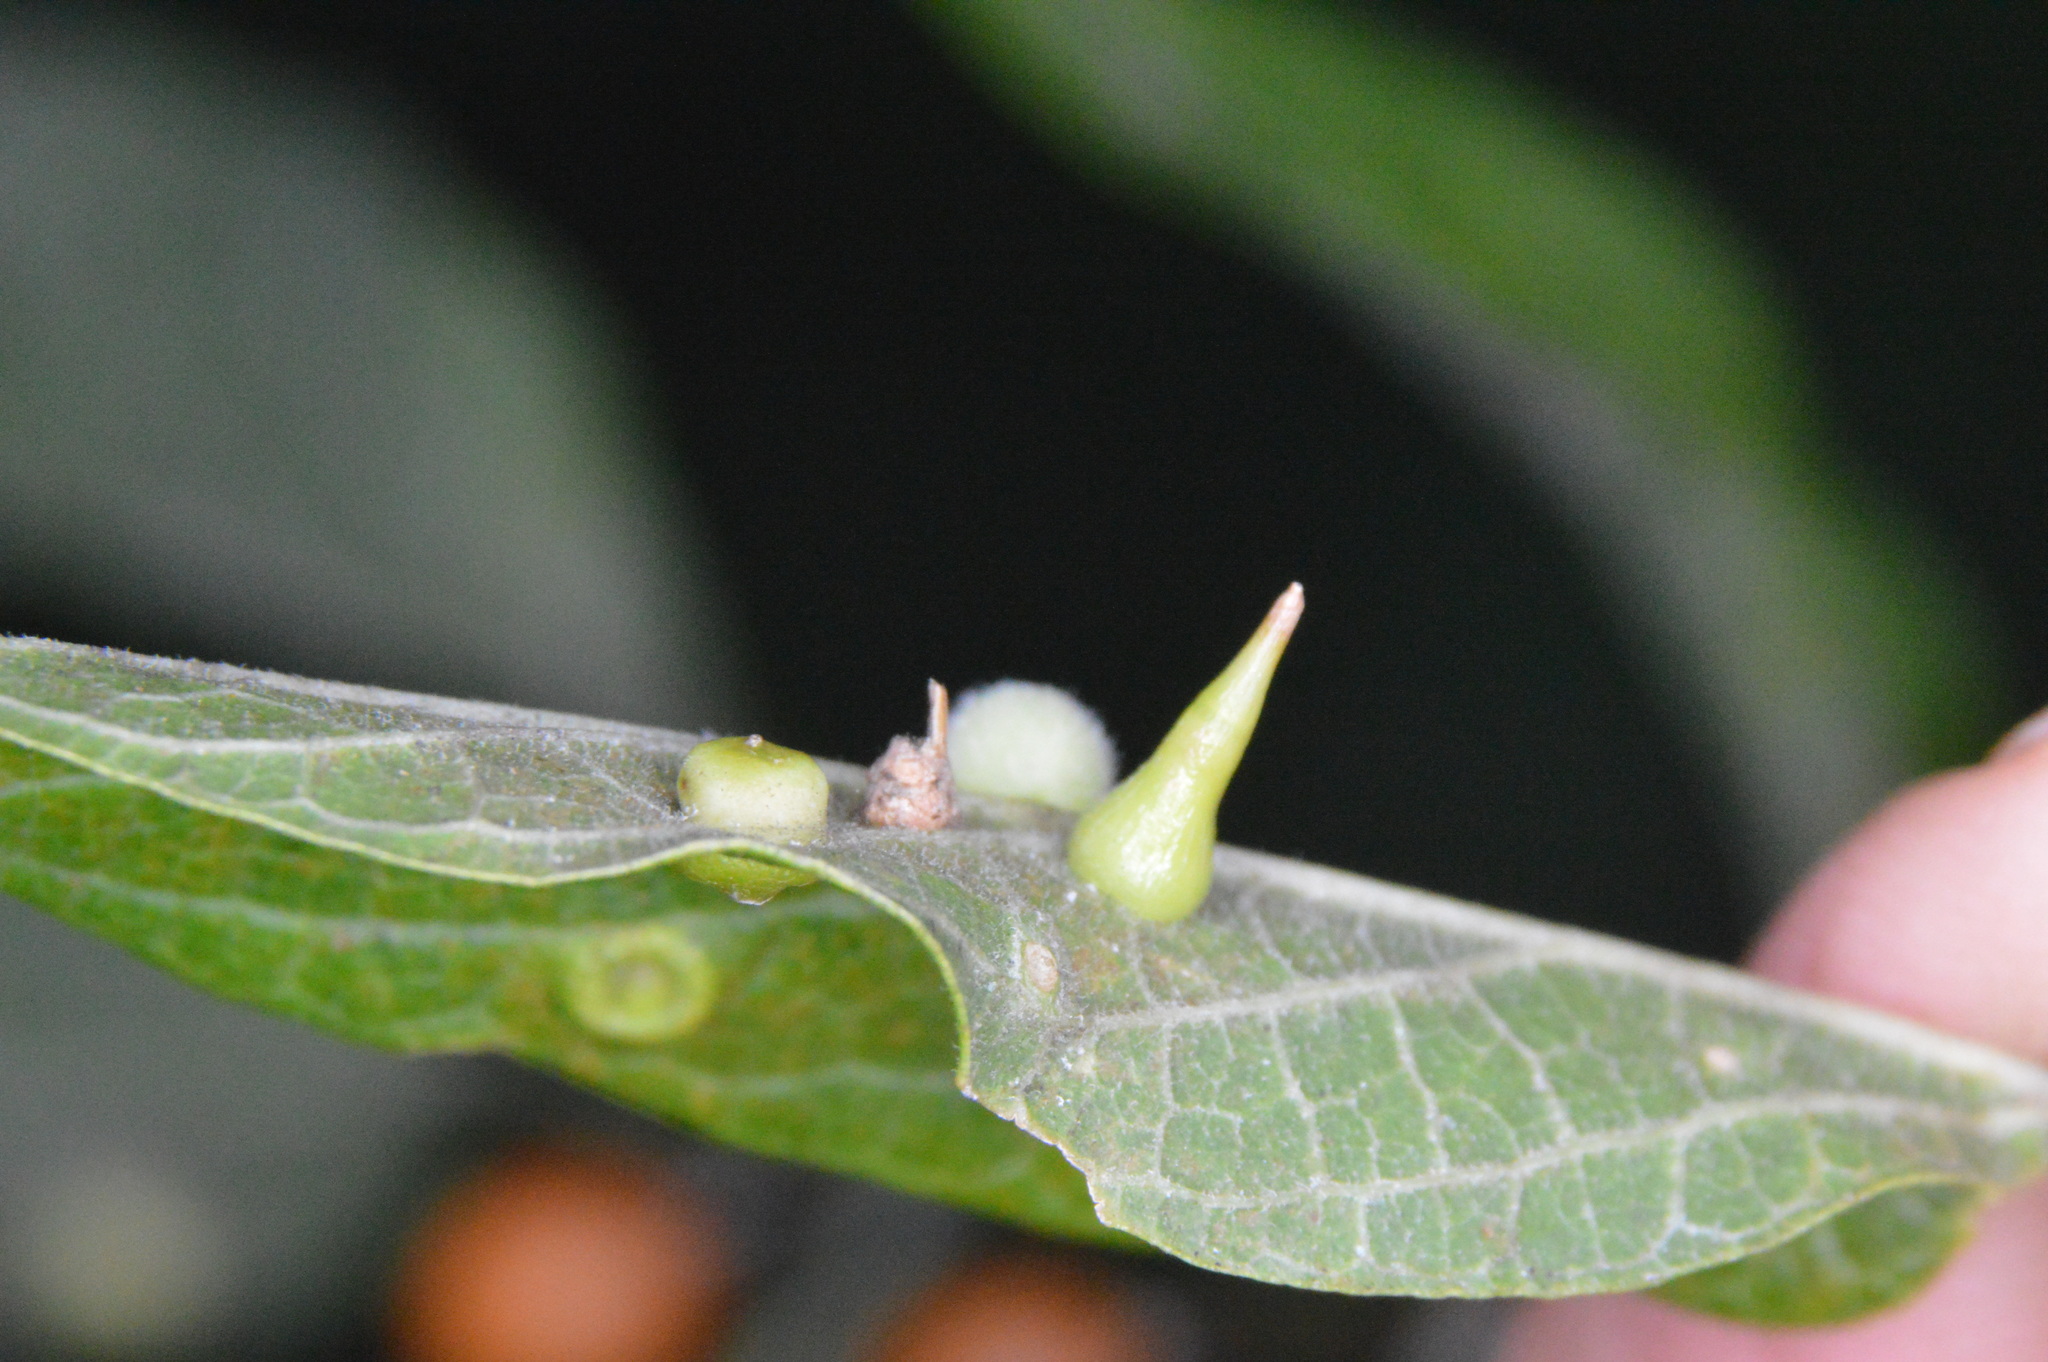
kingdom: Animalia
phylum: Arthropoda
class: Insecta
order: Diptera
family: Cecidomyiidae
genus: Celticecis
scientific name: Celticecis subulata
